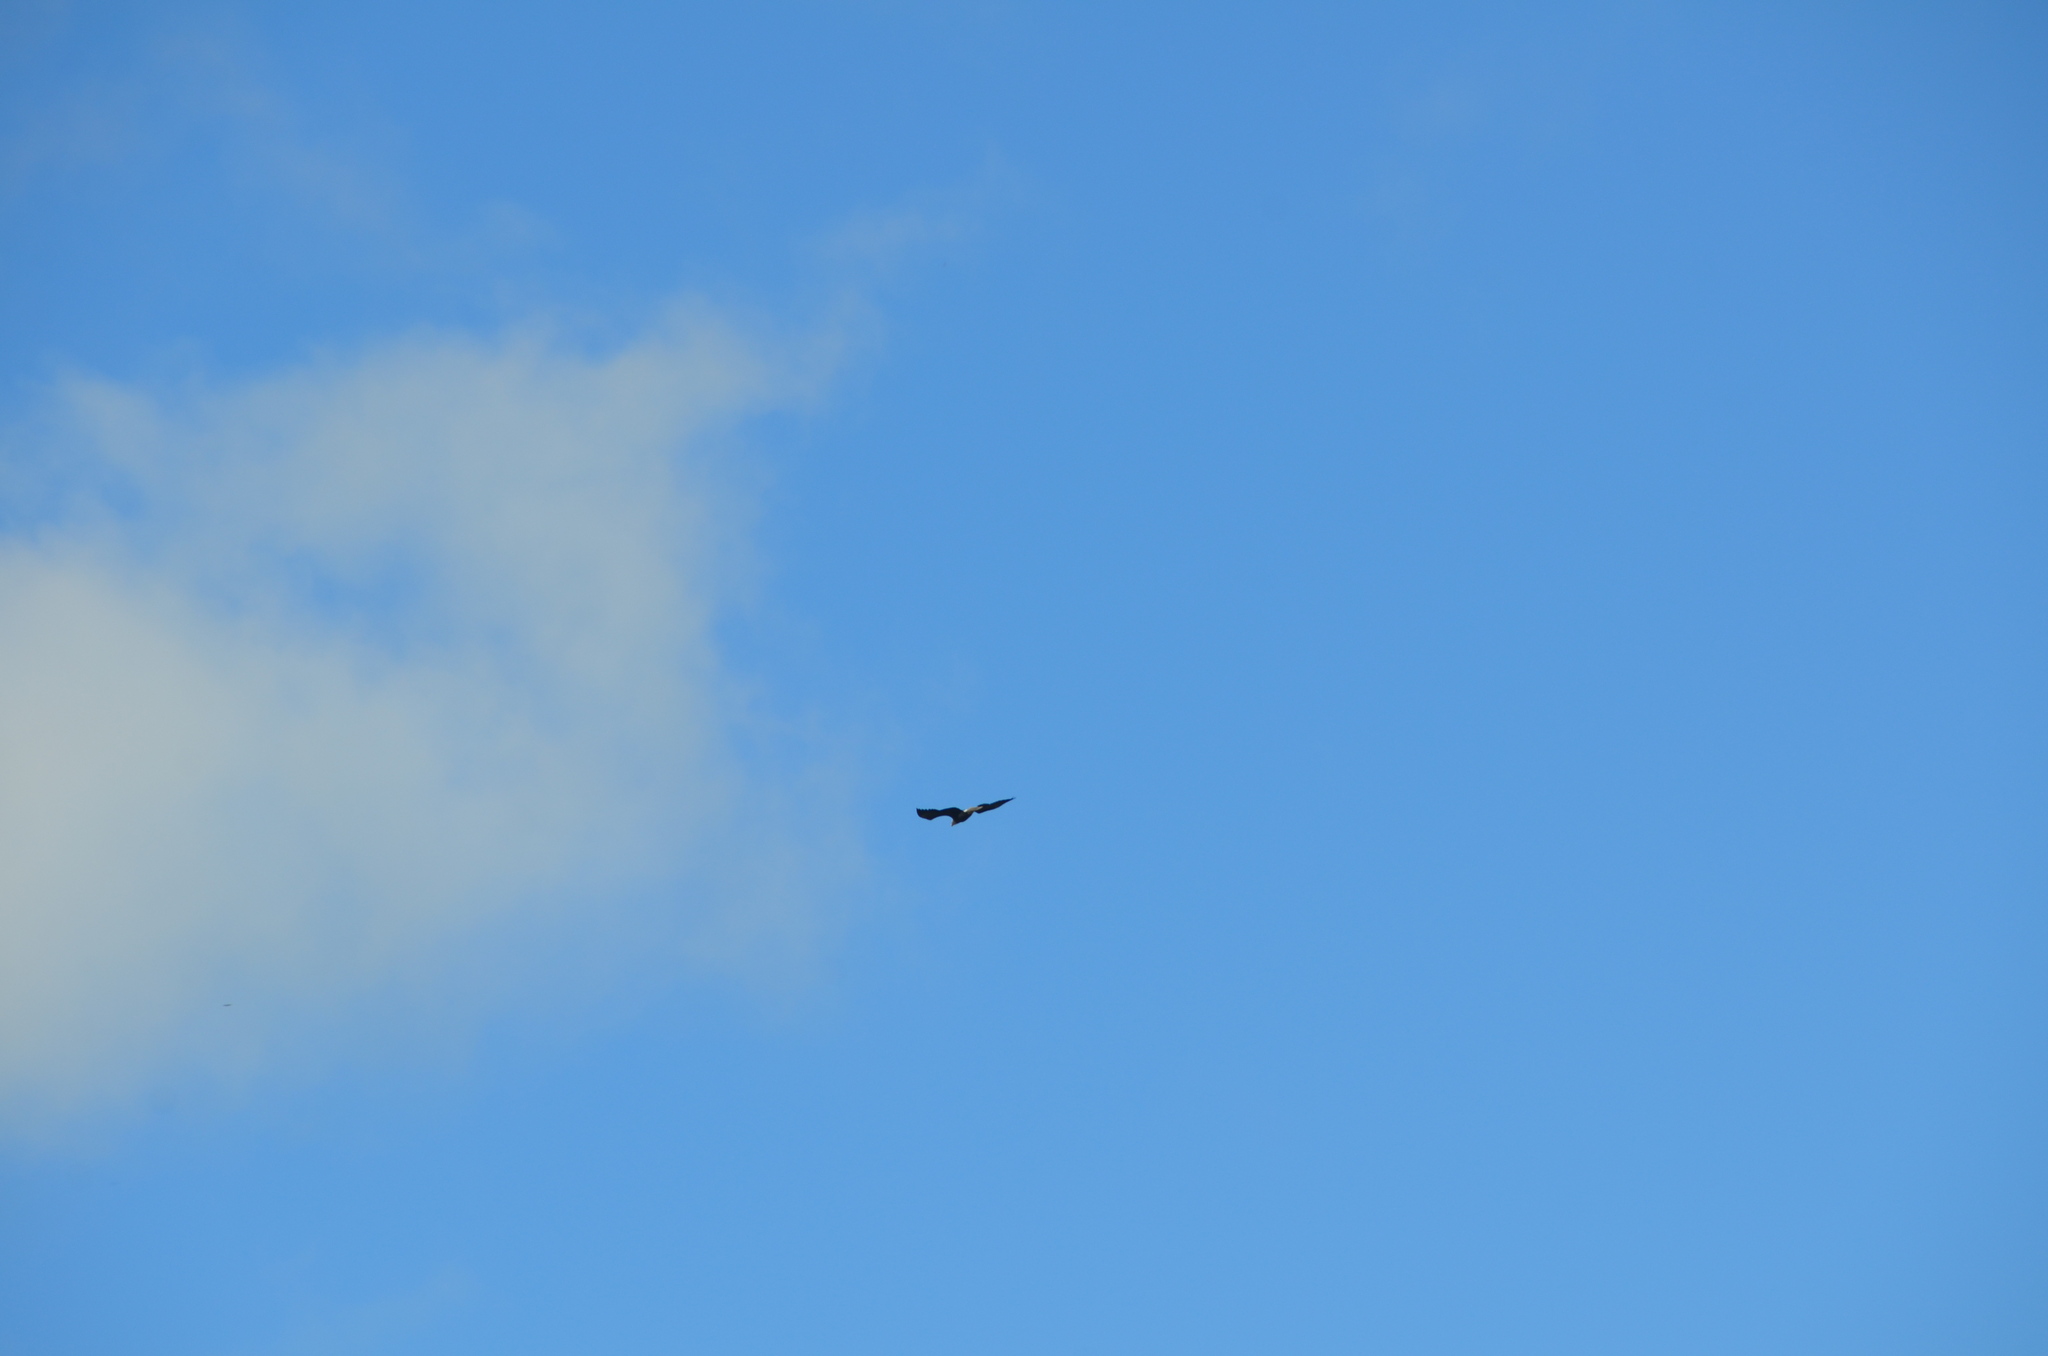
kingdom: Animalia
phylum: Chordata
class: Aves
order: Accipitriformes
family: Accipitridae
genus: Haliaeetus
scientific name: Haliaeetus leucocephalus
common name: Bald eagle
